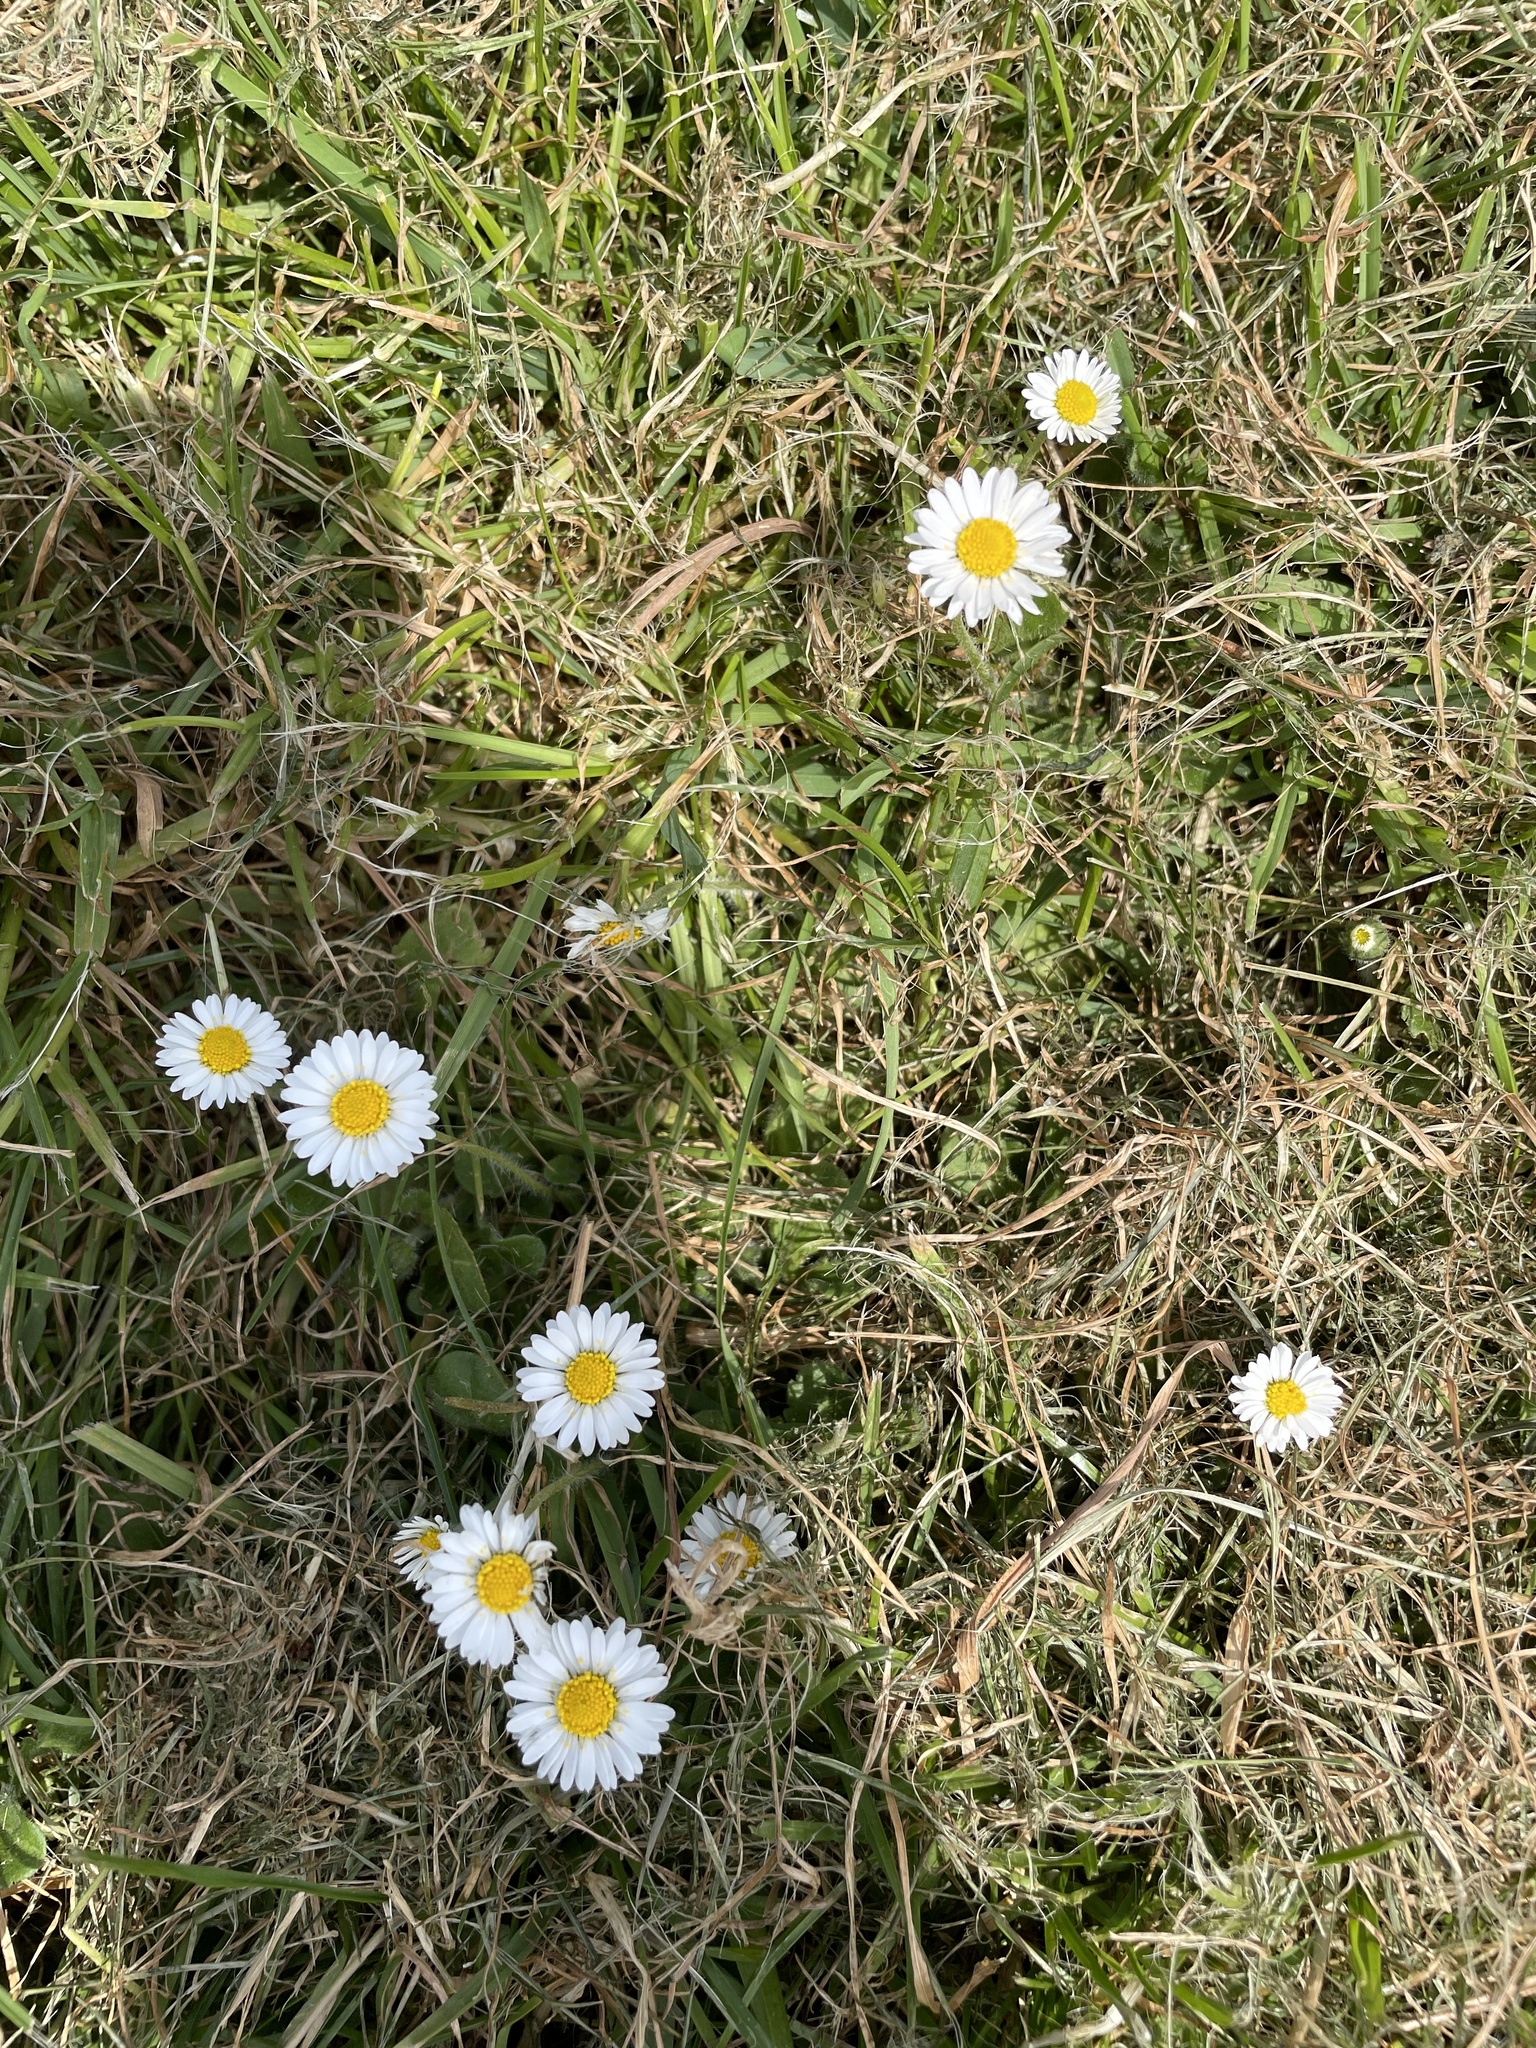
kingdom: Plantae
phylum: Tracheophyta
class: Magnoliopsida
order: Asterales
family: Asteraceae
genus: Bellis
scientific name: Bellis perennis
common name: Lawndaisy
